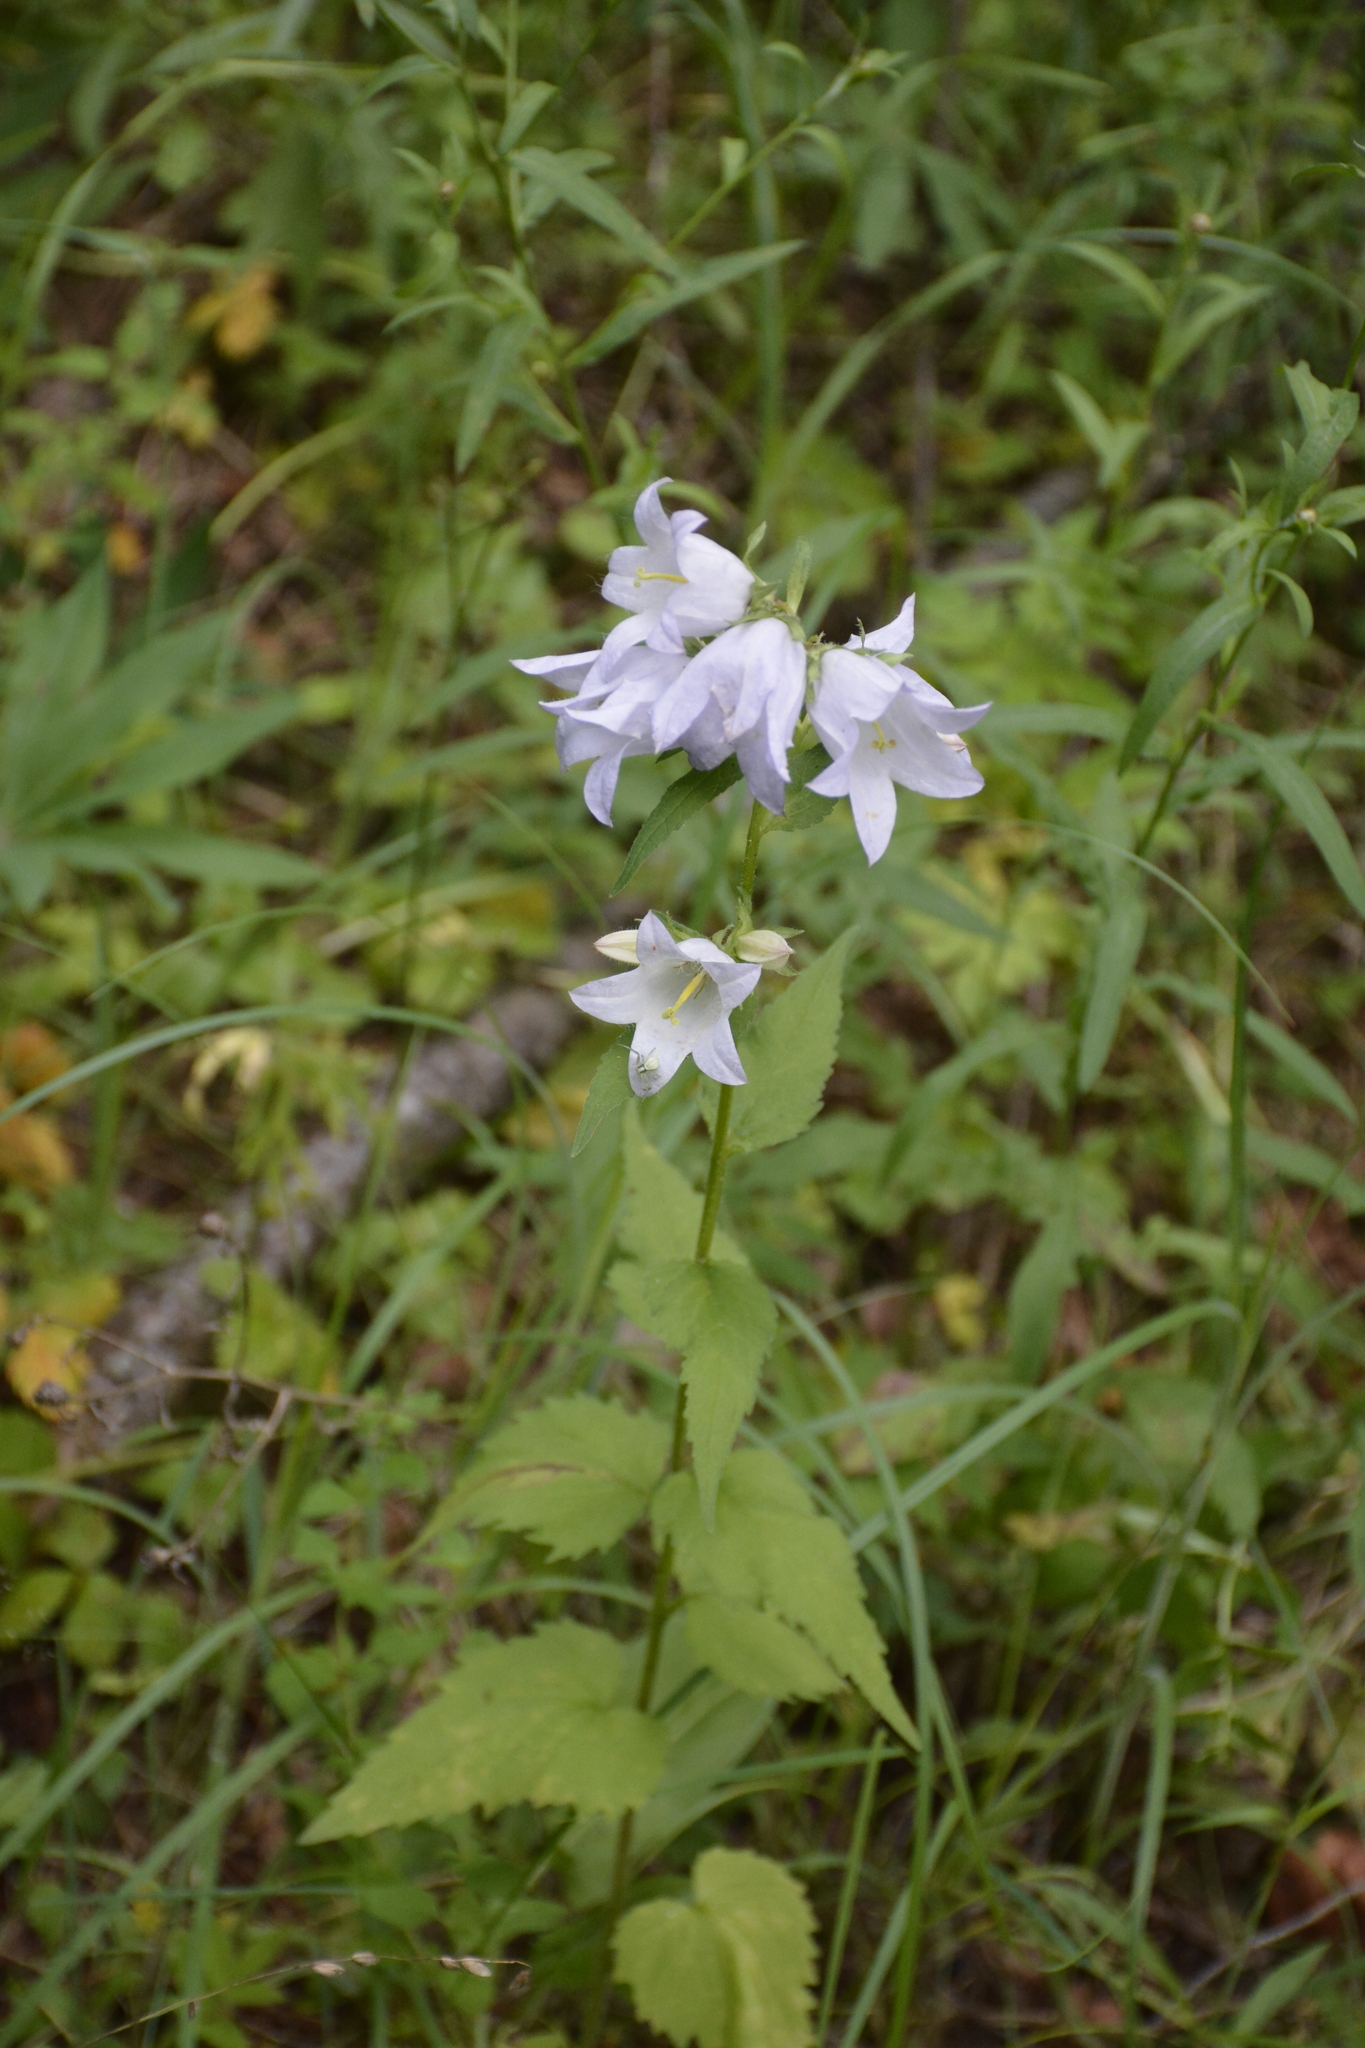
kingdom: Plantae
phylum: Tracheophyta
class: Magnoliopsida
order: Asterales
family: Campanulaceae
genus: Campanula
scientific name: Campanula trachelium
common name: Nettle-leaved bellflower
